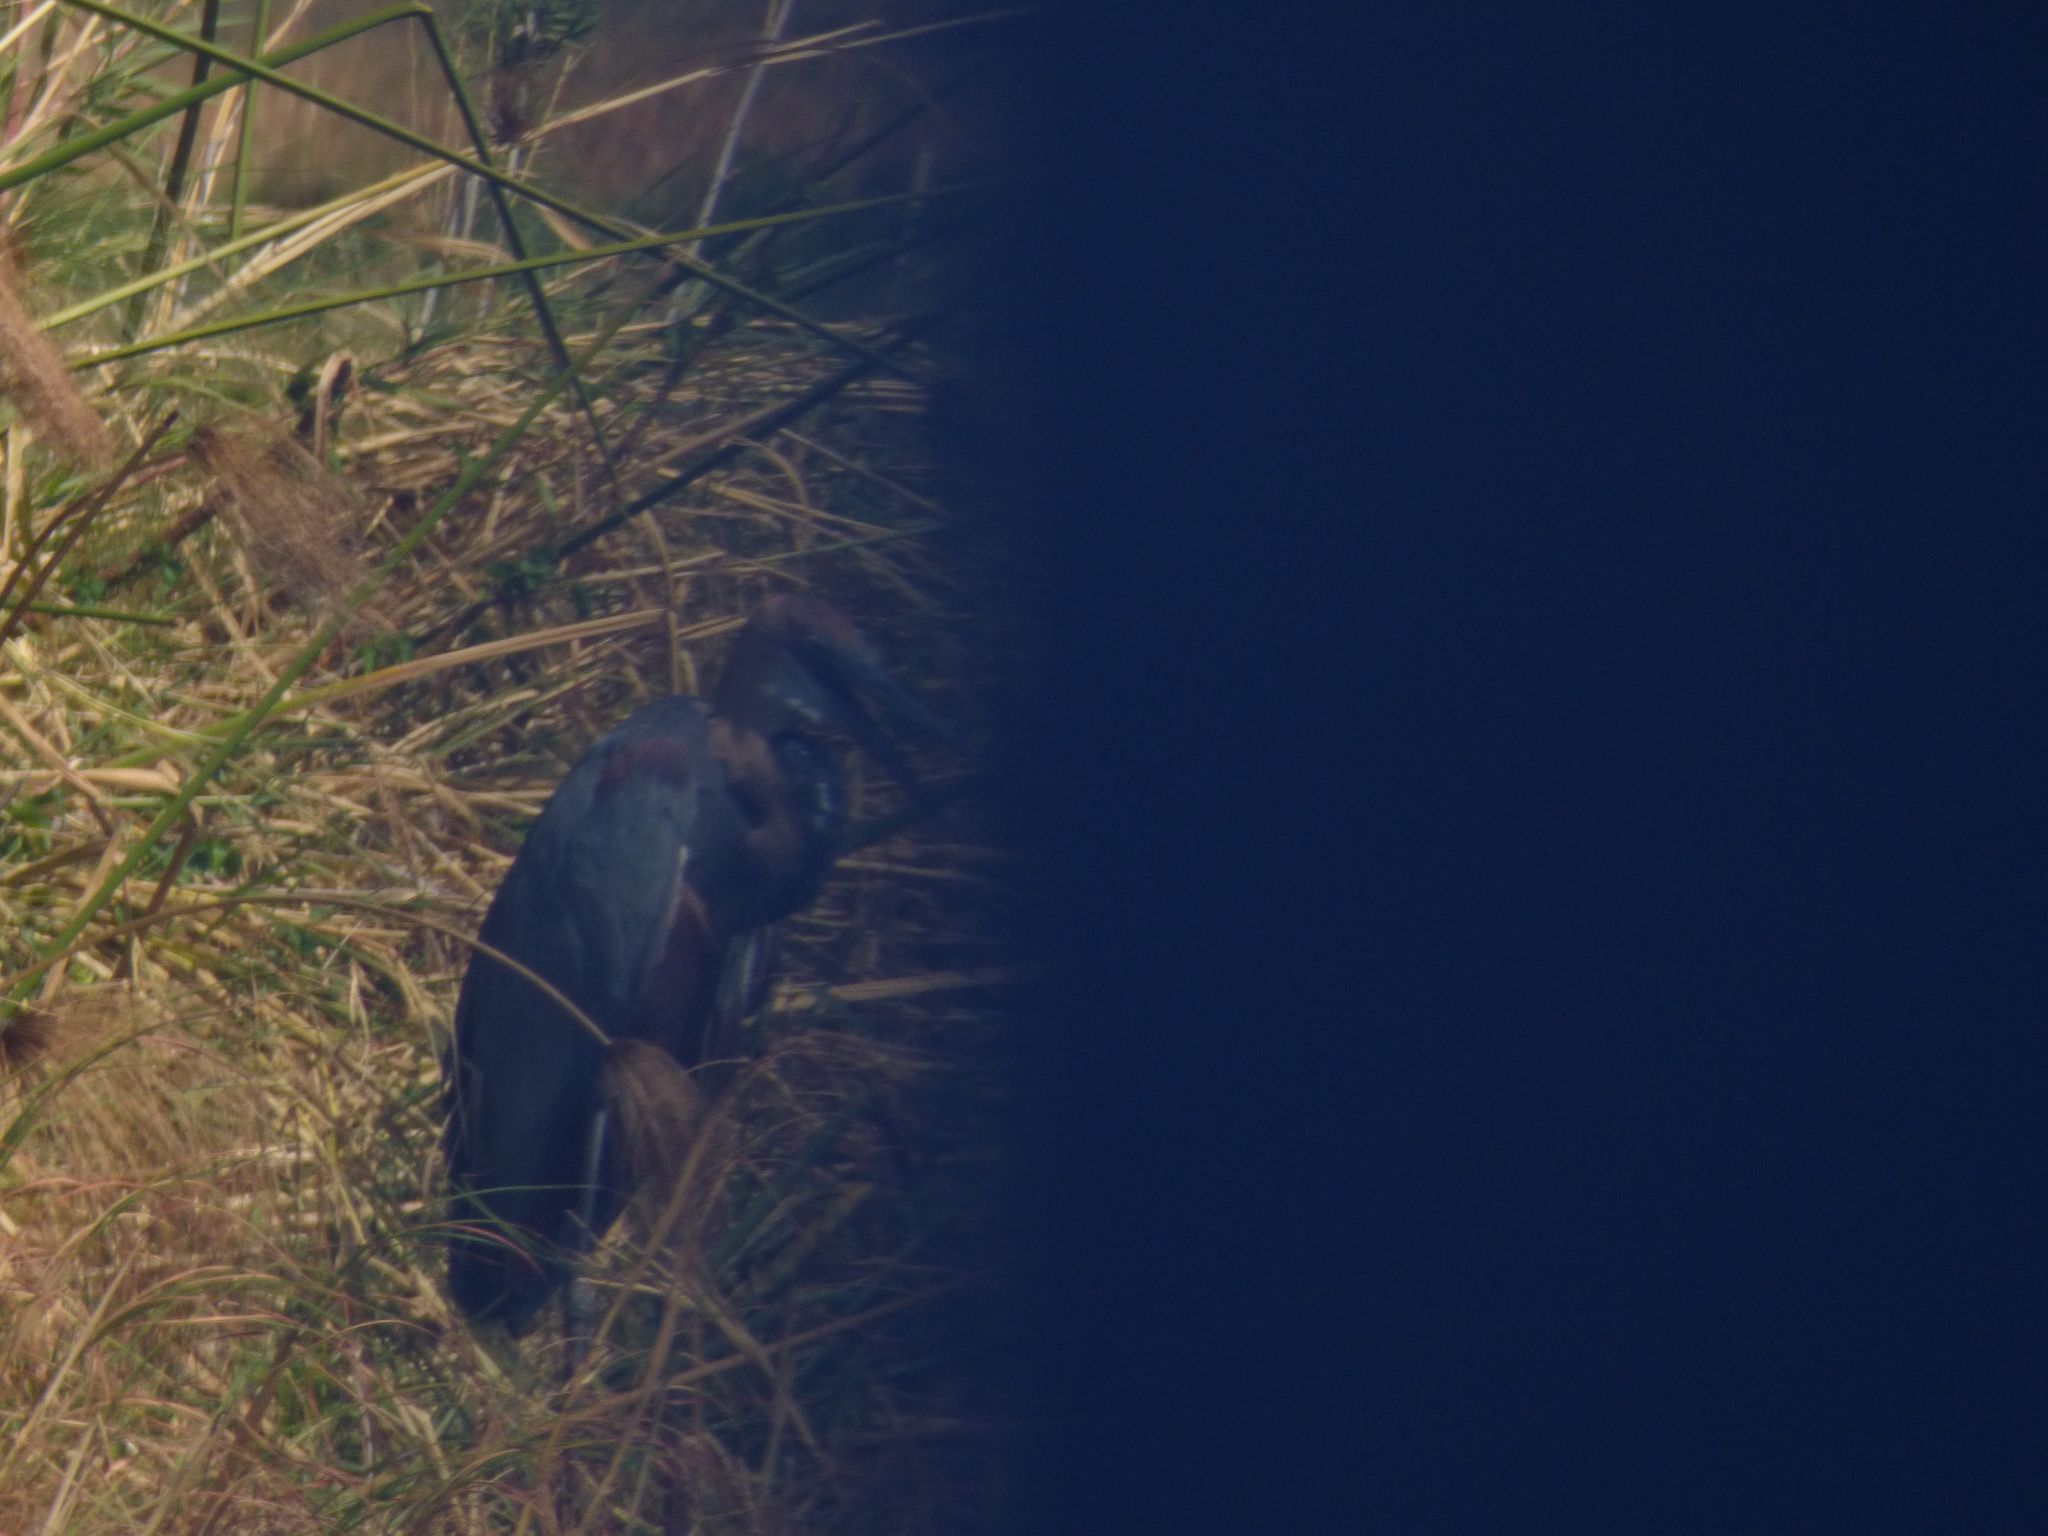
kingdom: Animalia
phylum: Chordata
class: Aves
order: Pelecaniformes
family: Ardeidae
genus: Ardea
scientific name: Ardea goliath
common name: Goliath heron
